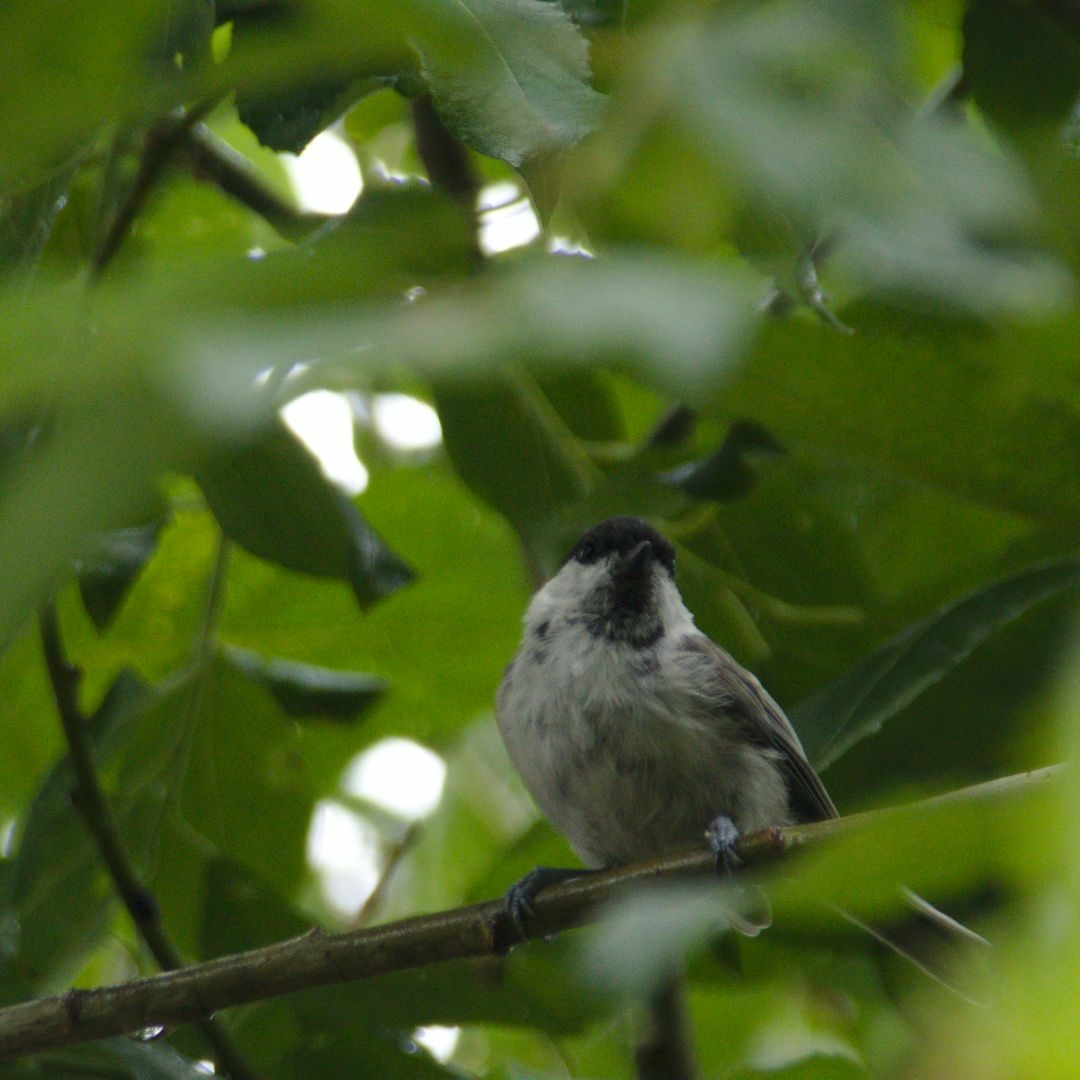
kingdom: Animalia
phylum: Chordata
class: Aves
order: Passeriformes
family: Paridae
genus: Poecile
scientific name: Poecile montanus
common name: Willow tit
